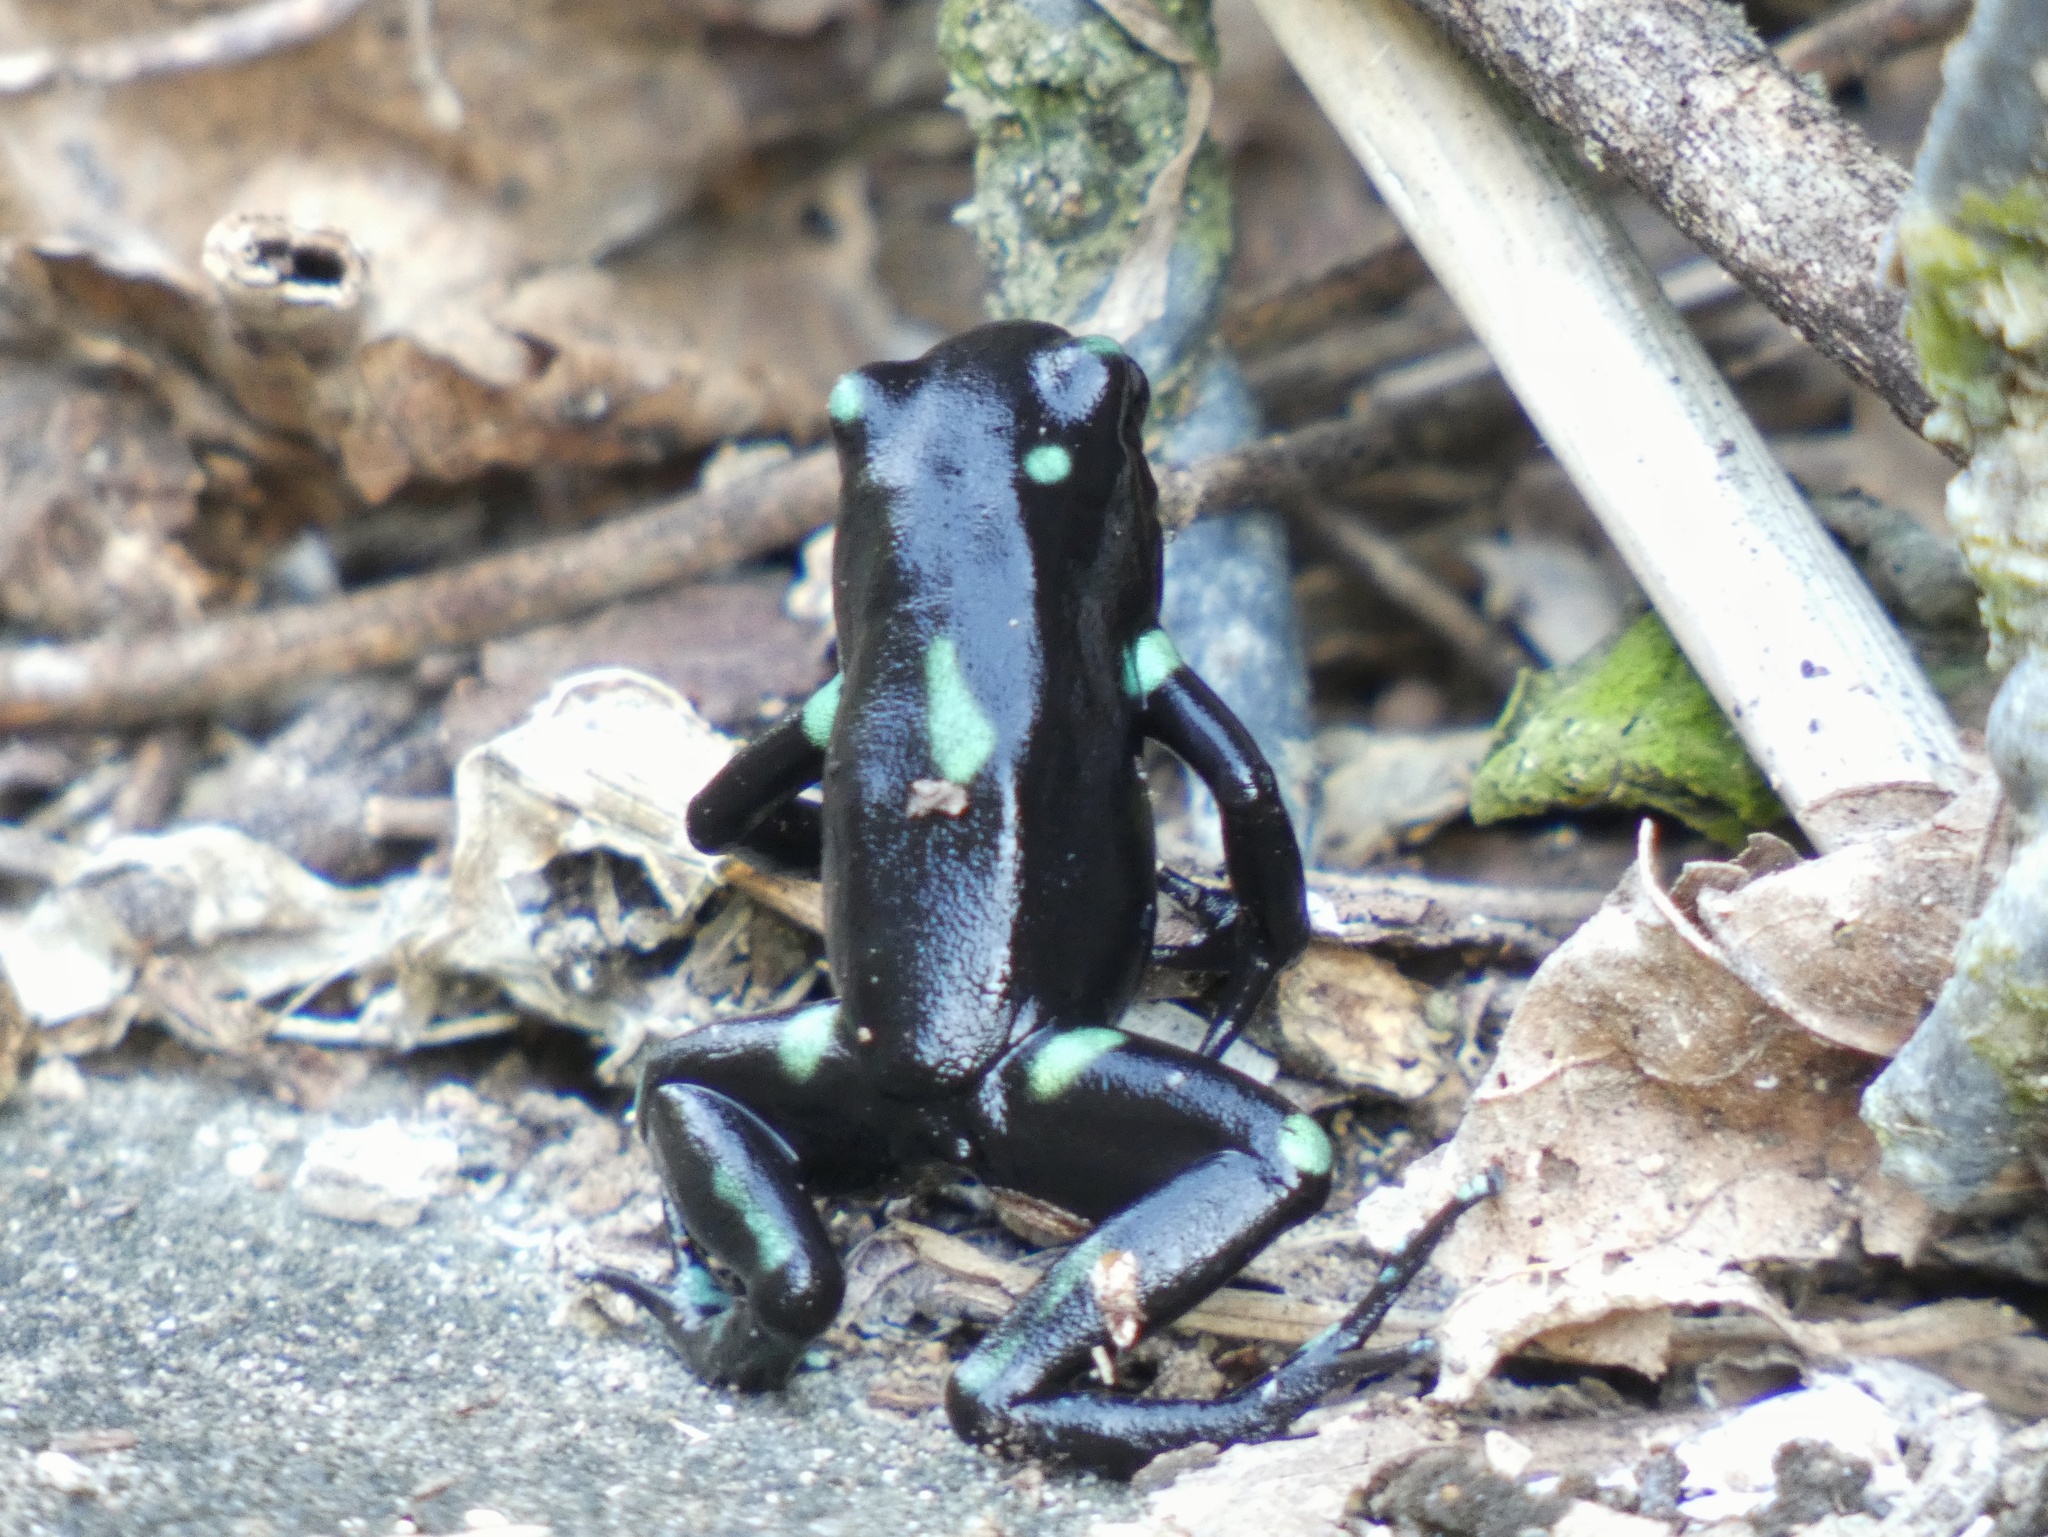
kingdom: Animalia
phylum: Chordata
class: Amphibia
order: Anura
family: Dendrobatidae
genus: Dendrobates
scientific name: Dendrobates auratus
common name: Green and black poison dart frog
